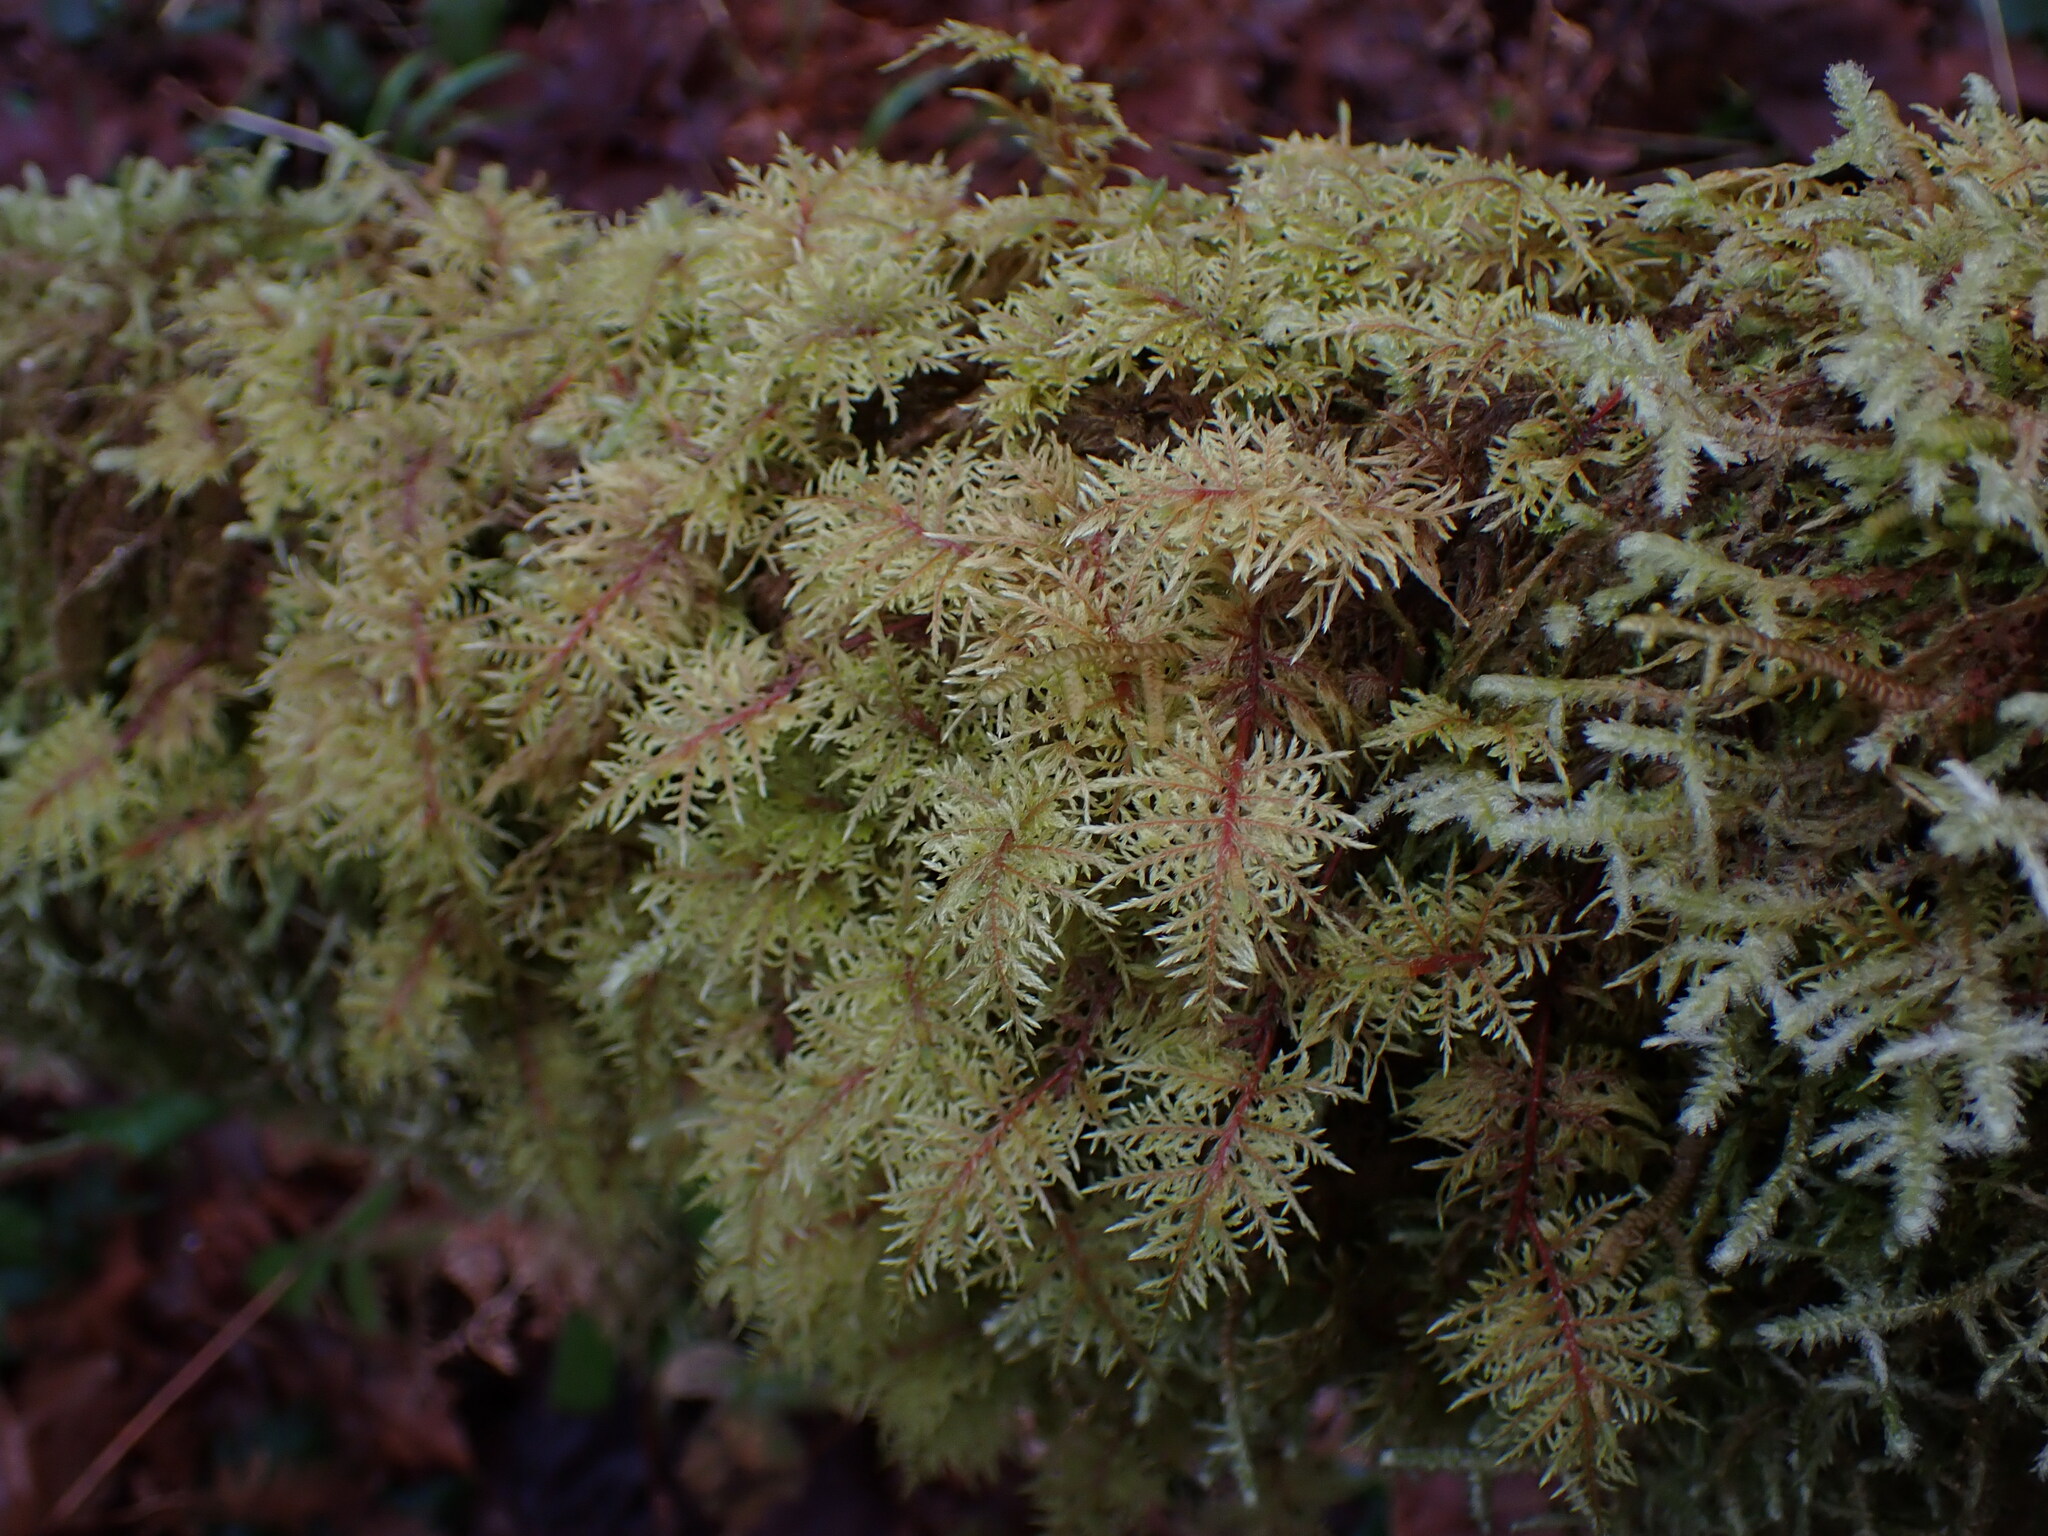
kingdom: Plantae
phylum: Bryophyta
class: Bryopsida
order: Hypnales
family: Hylocomiaceae
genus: Hylocomium
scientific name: Hylocomium splendens
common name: Stairstep moss
